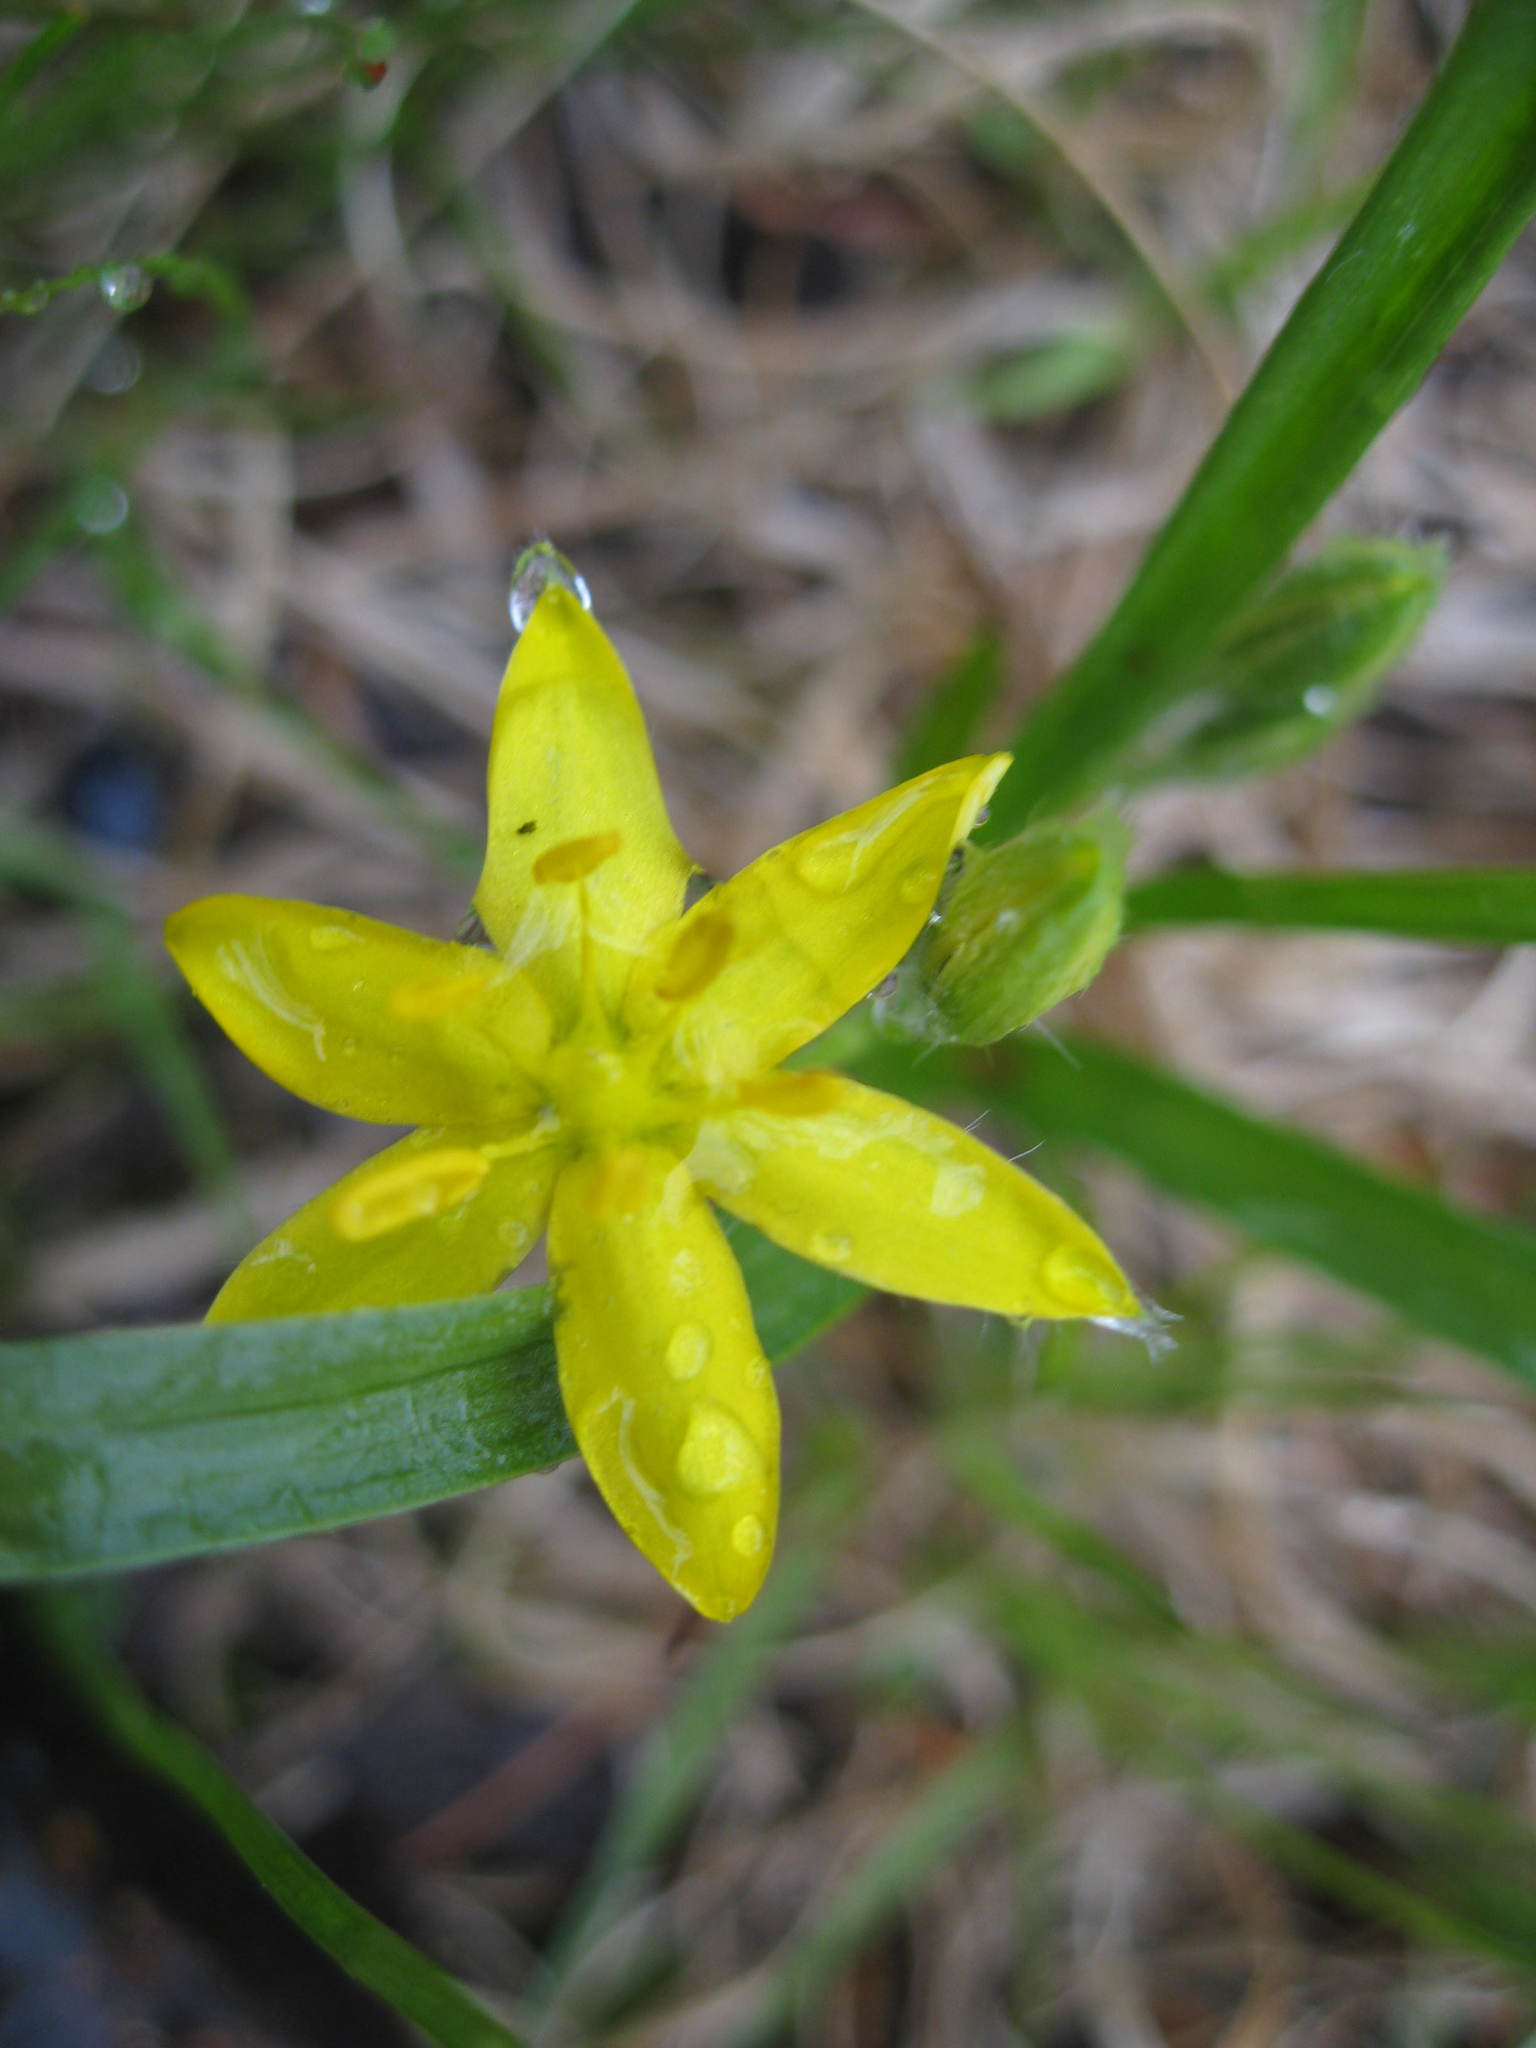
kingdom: Plantae
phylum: Tracheophyta
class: Liliopsida
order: Asparagales
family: Hypoxidaceae
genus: Hypoxis
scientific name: Hypoxis hirsuta
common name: Common goldstar
